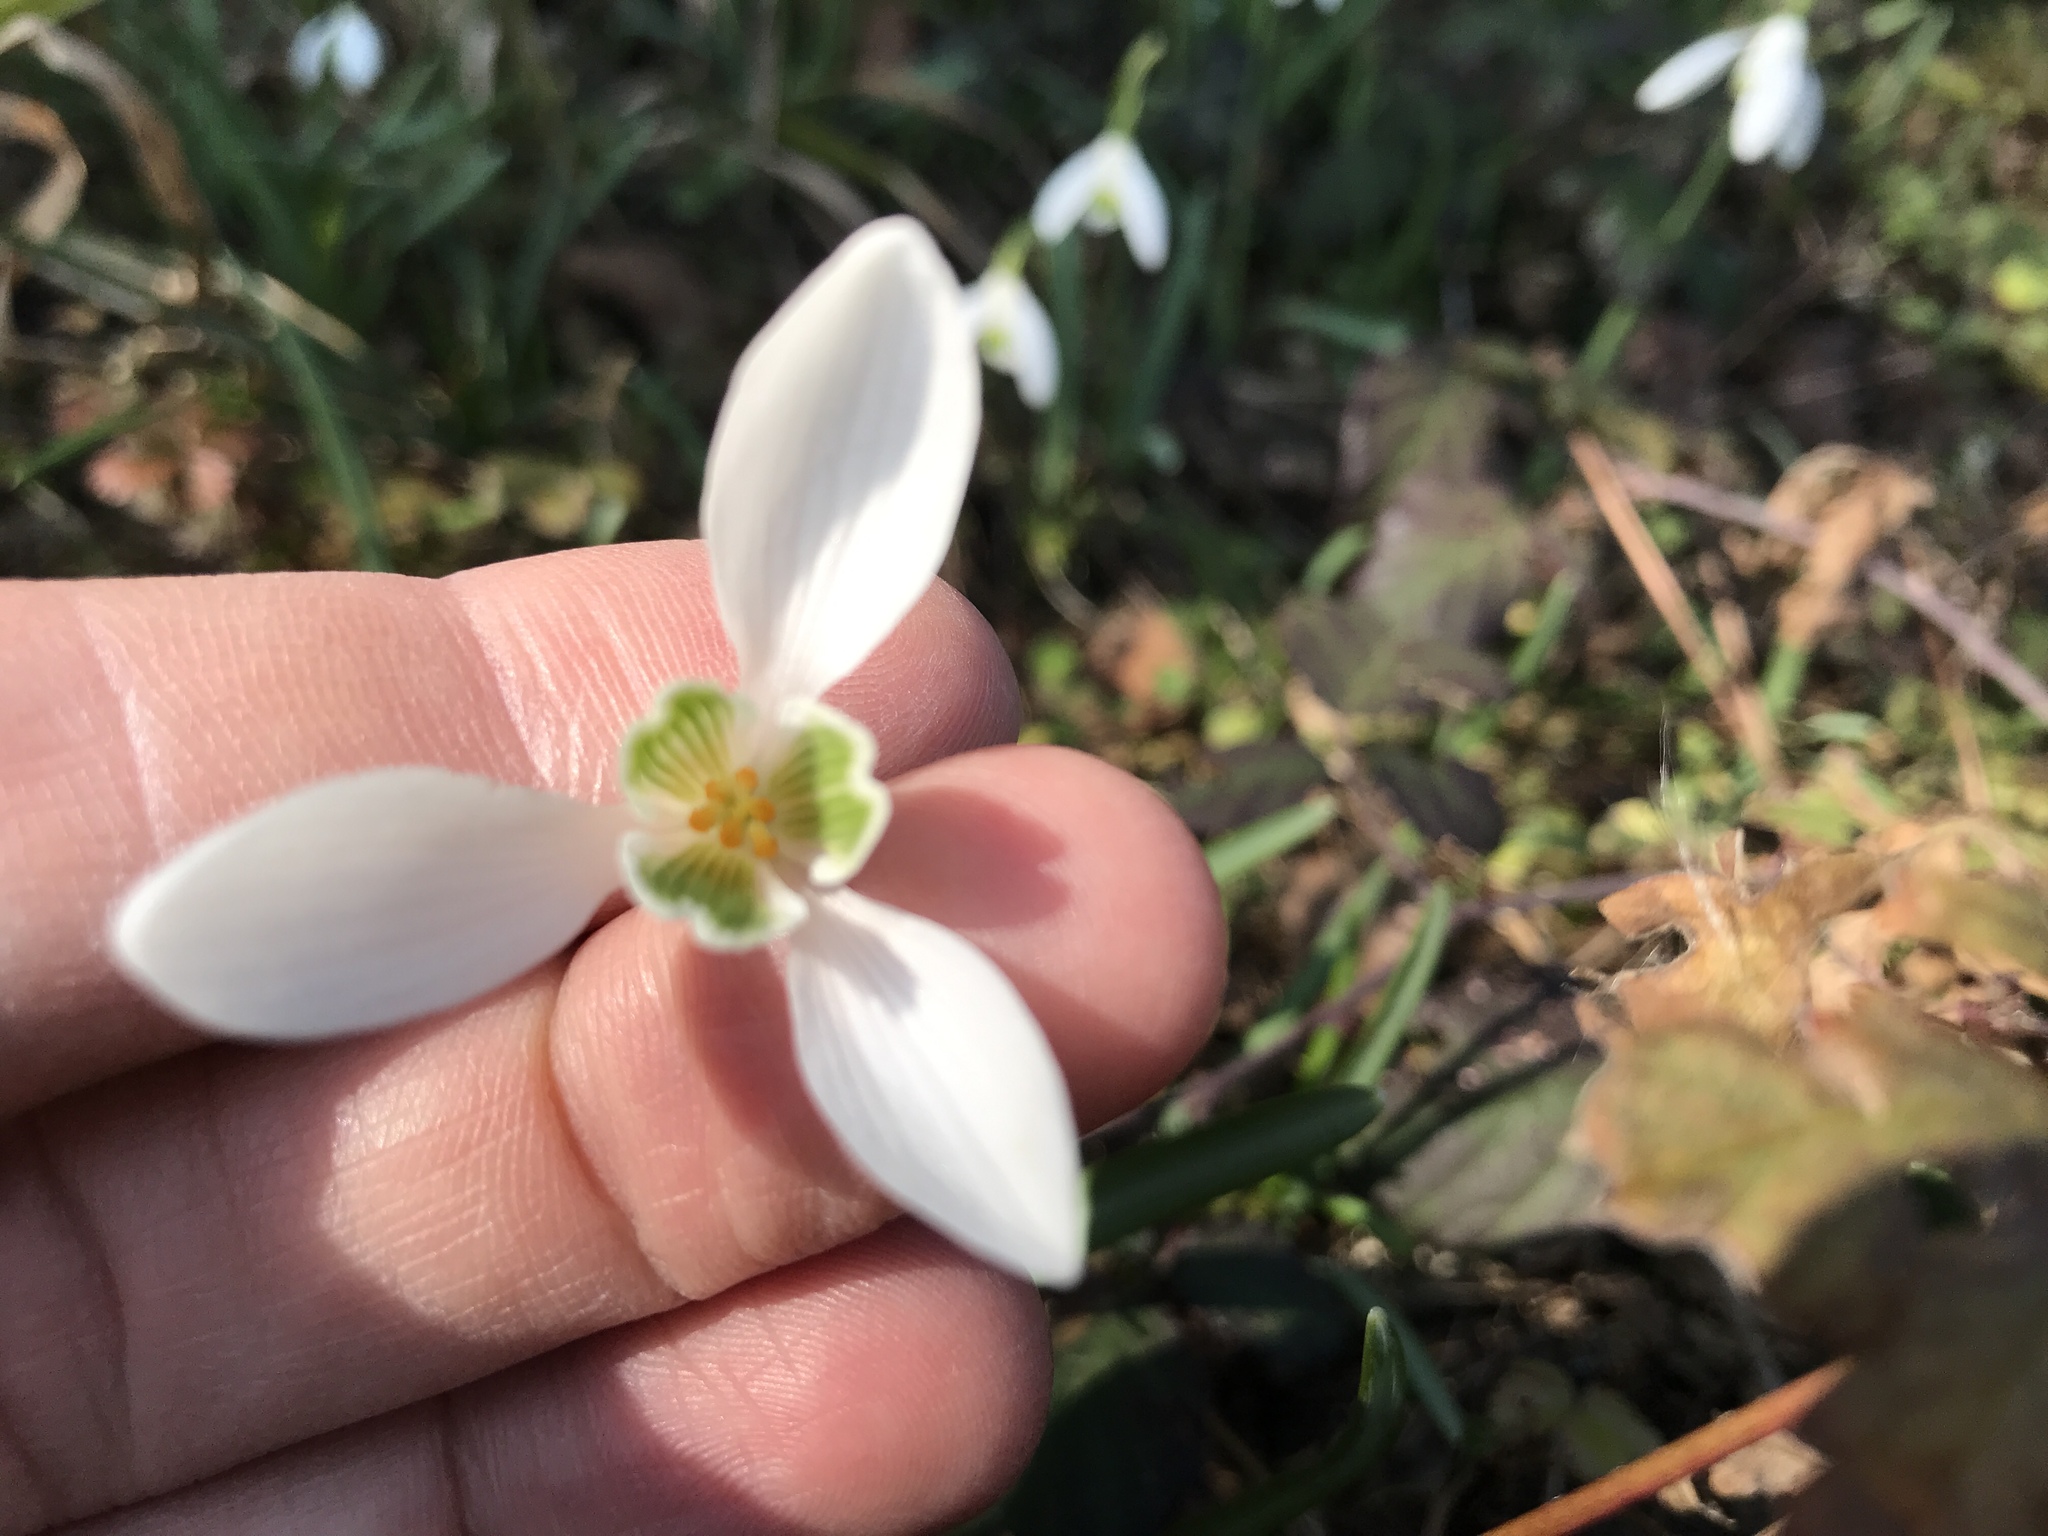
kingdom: Plantae
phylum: Tracheophyta
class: Liliopsida
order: Asparagales
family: Amaryllidaceae
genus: Galanthus
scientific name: Galanthus nivalis
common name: Snowdrop
